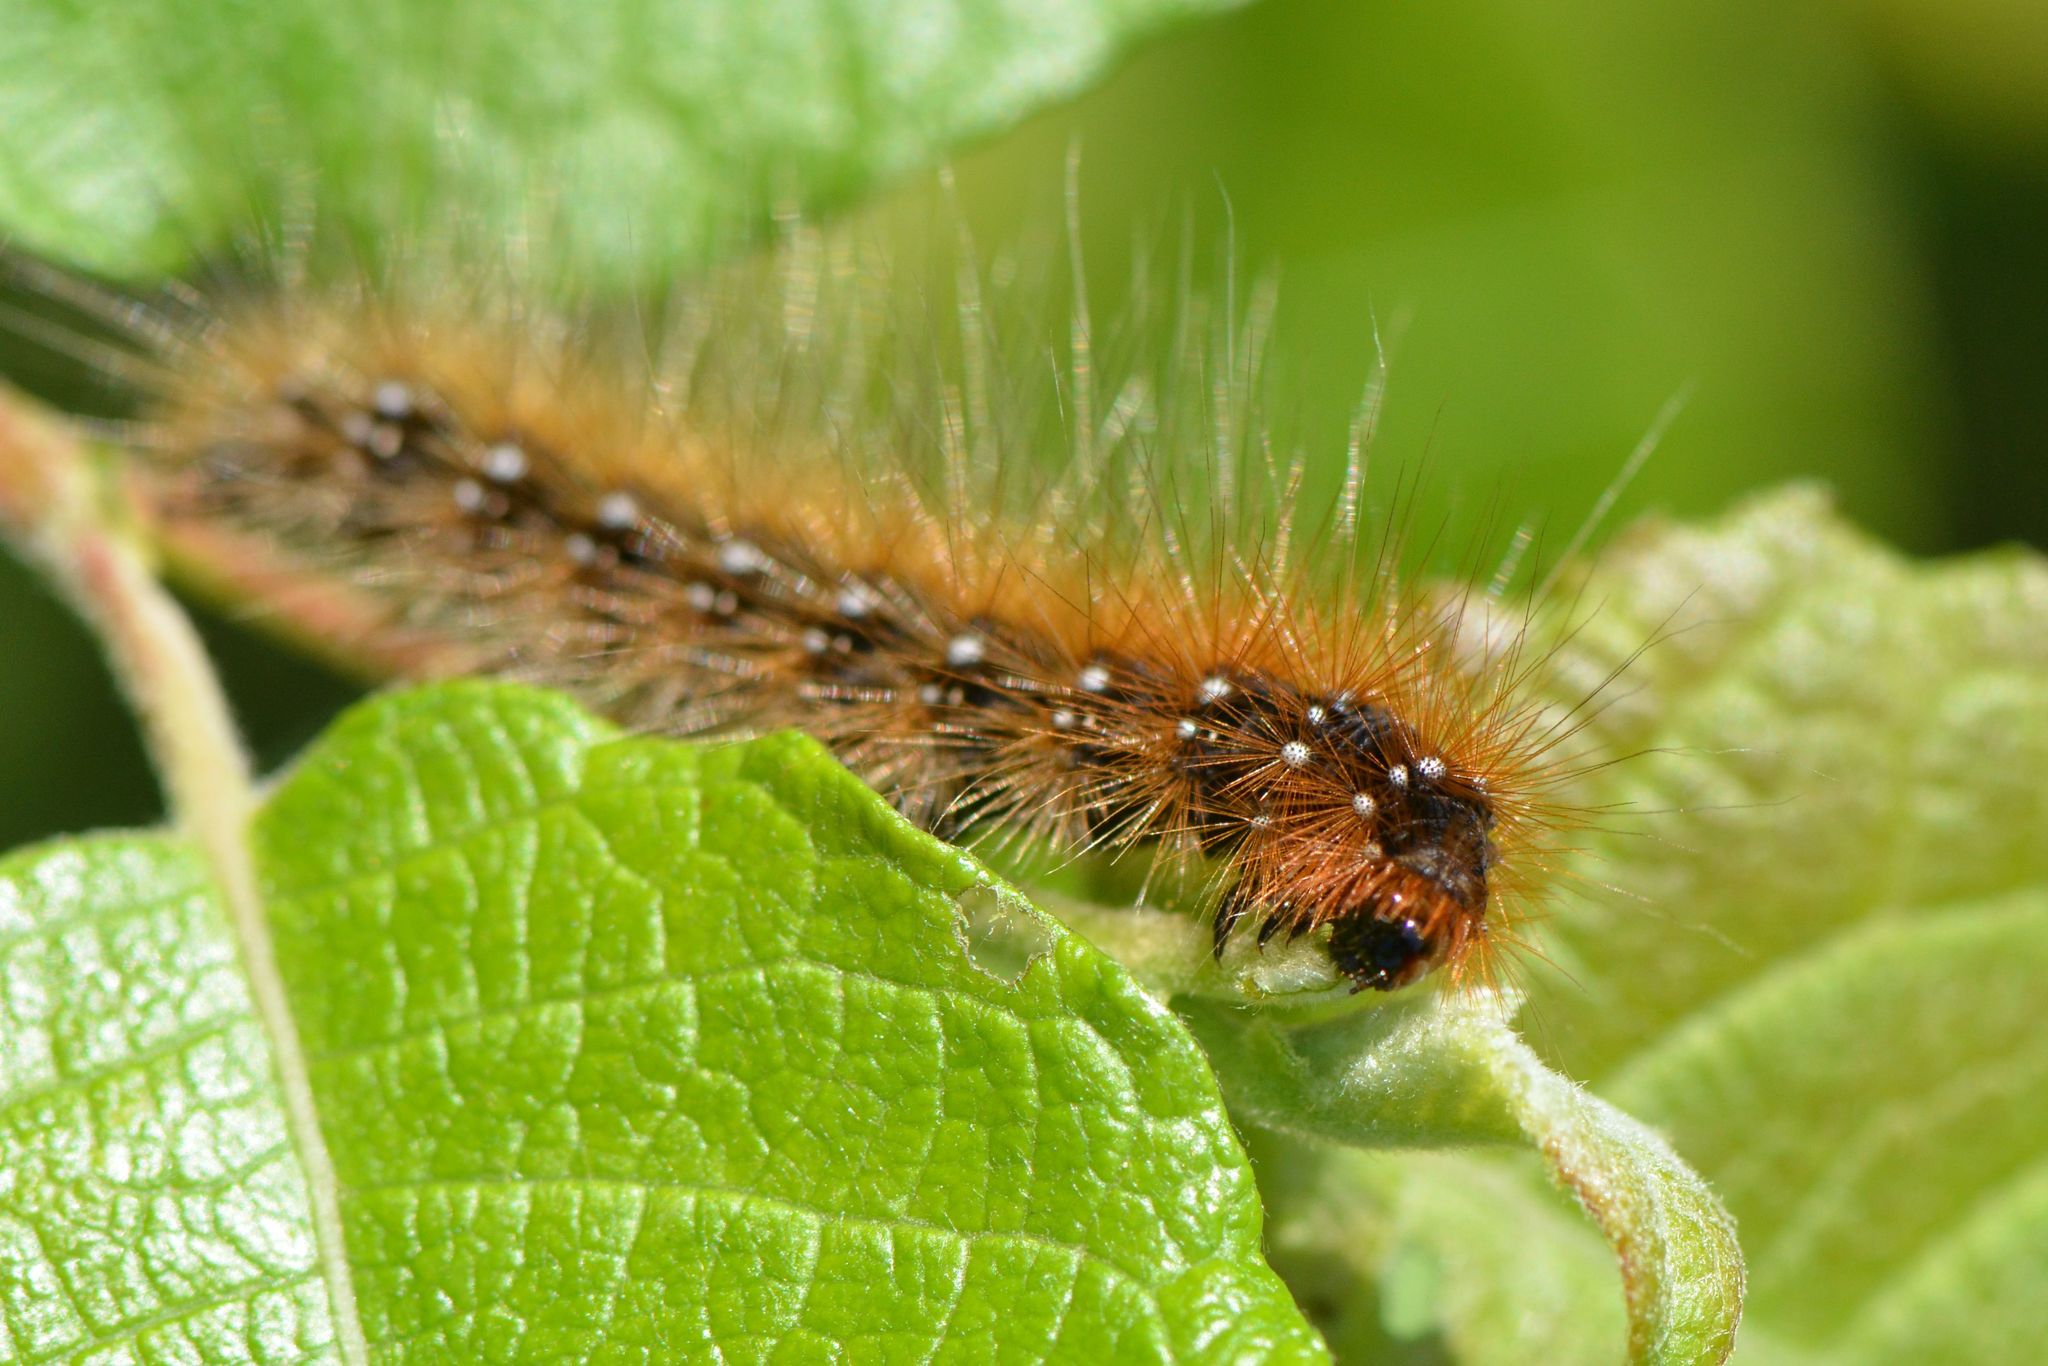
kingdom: Animalia
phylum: Arthropoda
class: Insecta
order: Lepidoptera
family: Erebidae
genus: Arctia
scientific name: Arctia caja
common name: Garden tiger
